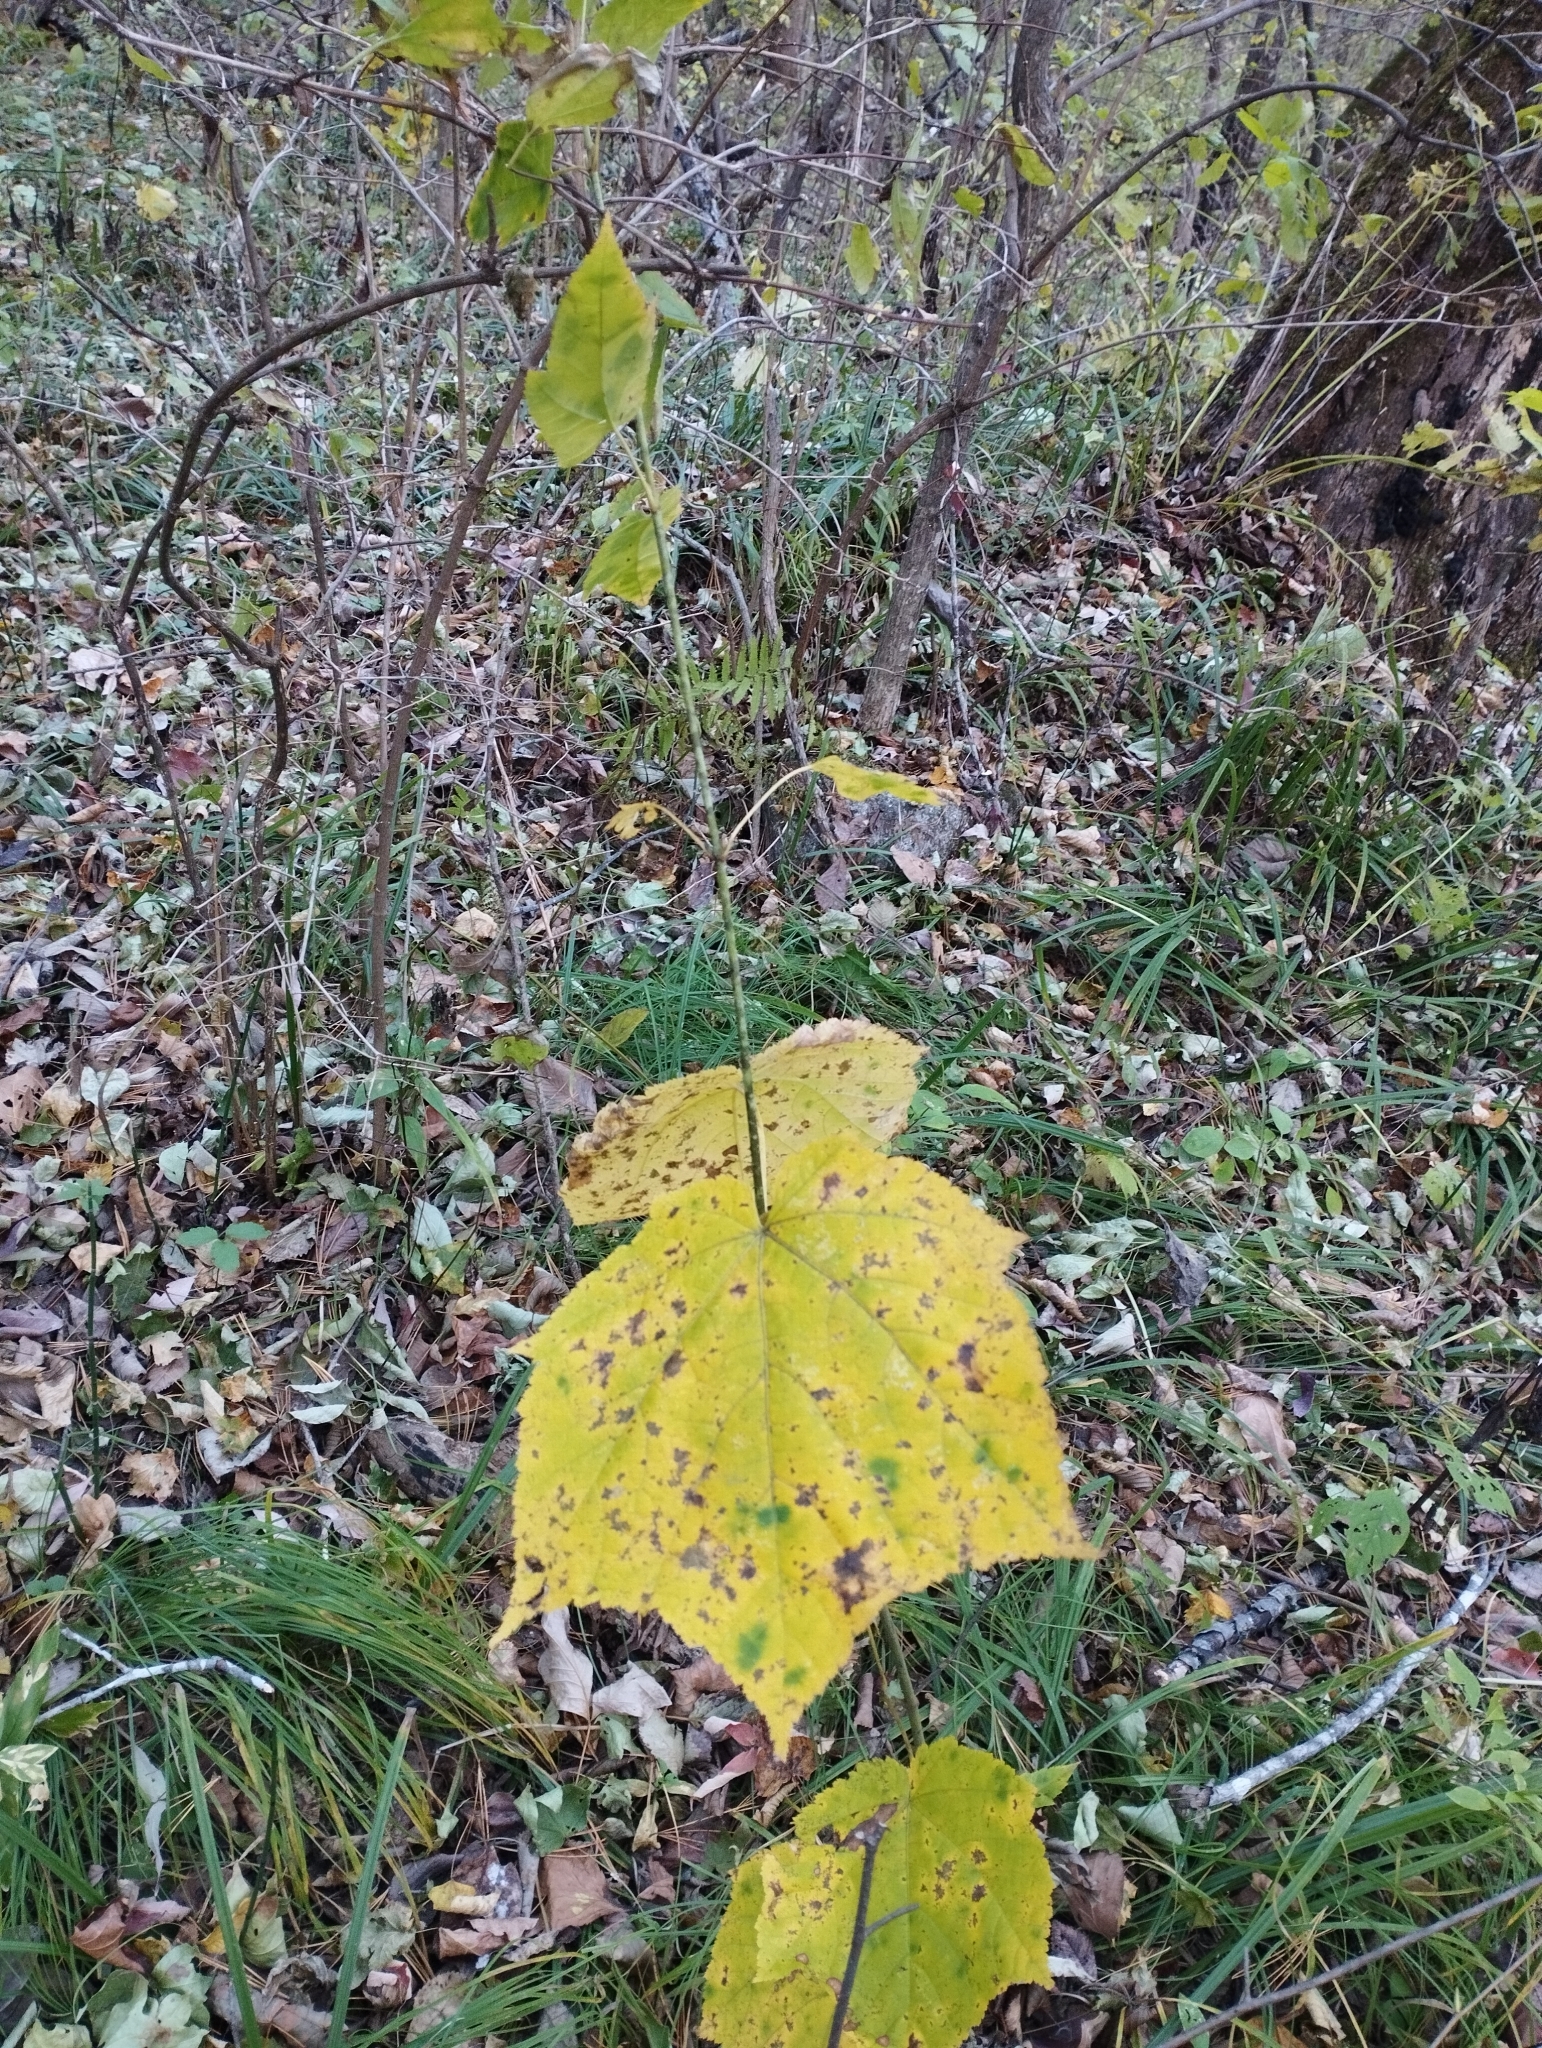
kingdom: Plantae
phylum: Tracheophyta
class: Magnoliopsida
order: Sapindales
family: Sapindaceae
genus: Acer
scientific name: Acer tegmentosum
